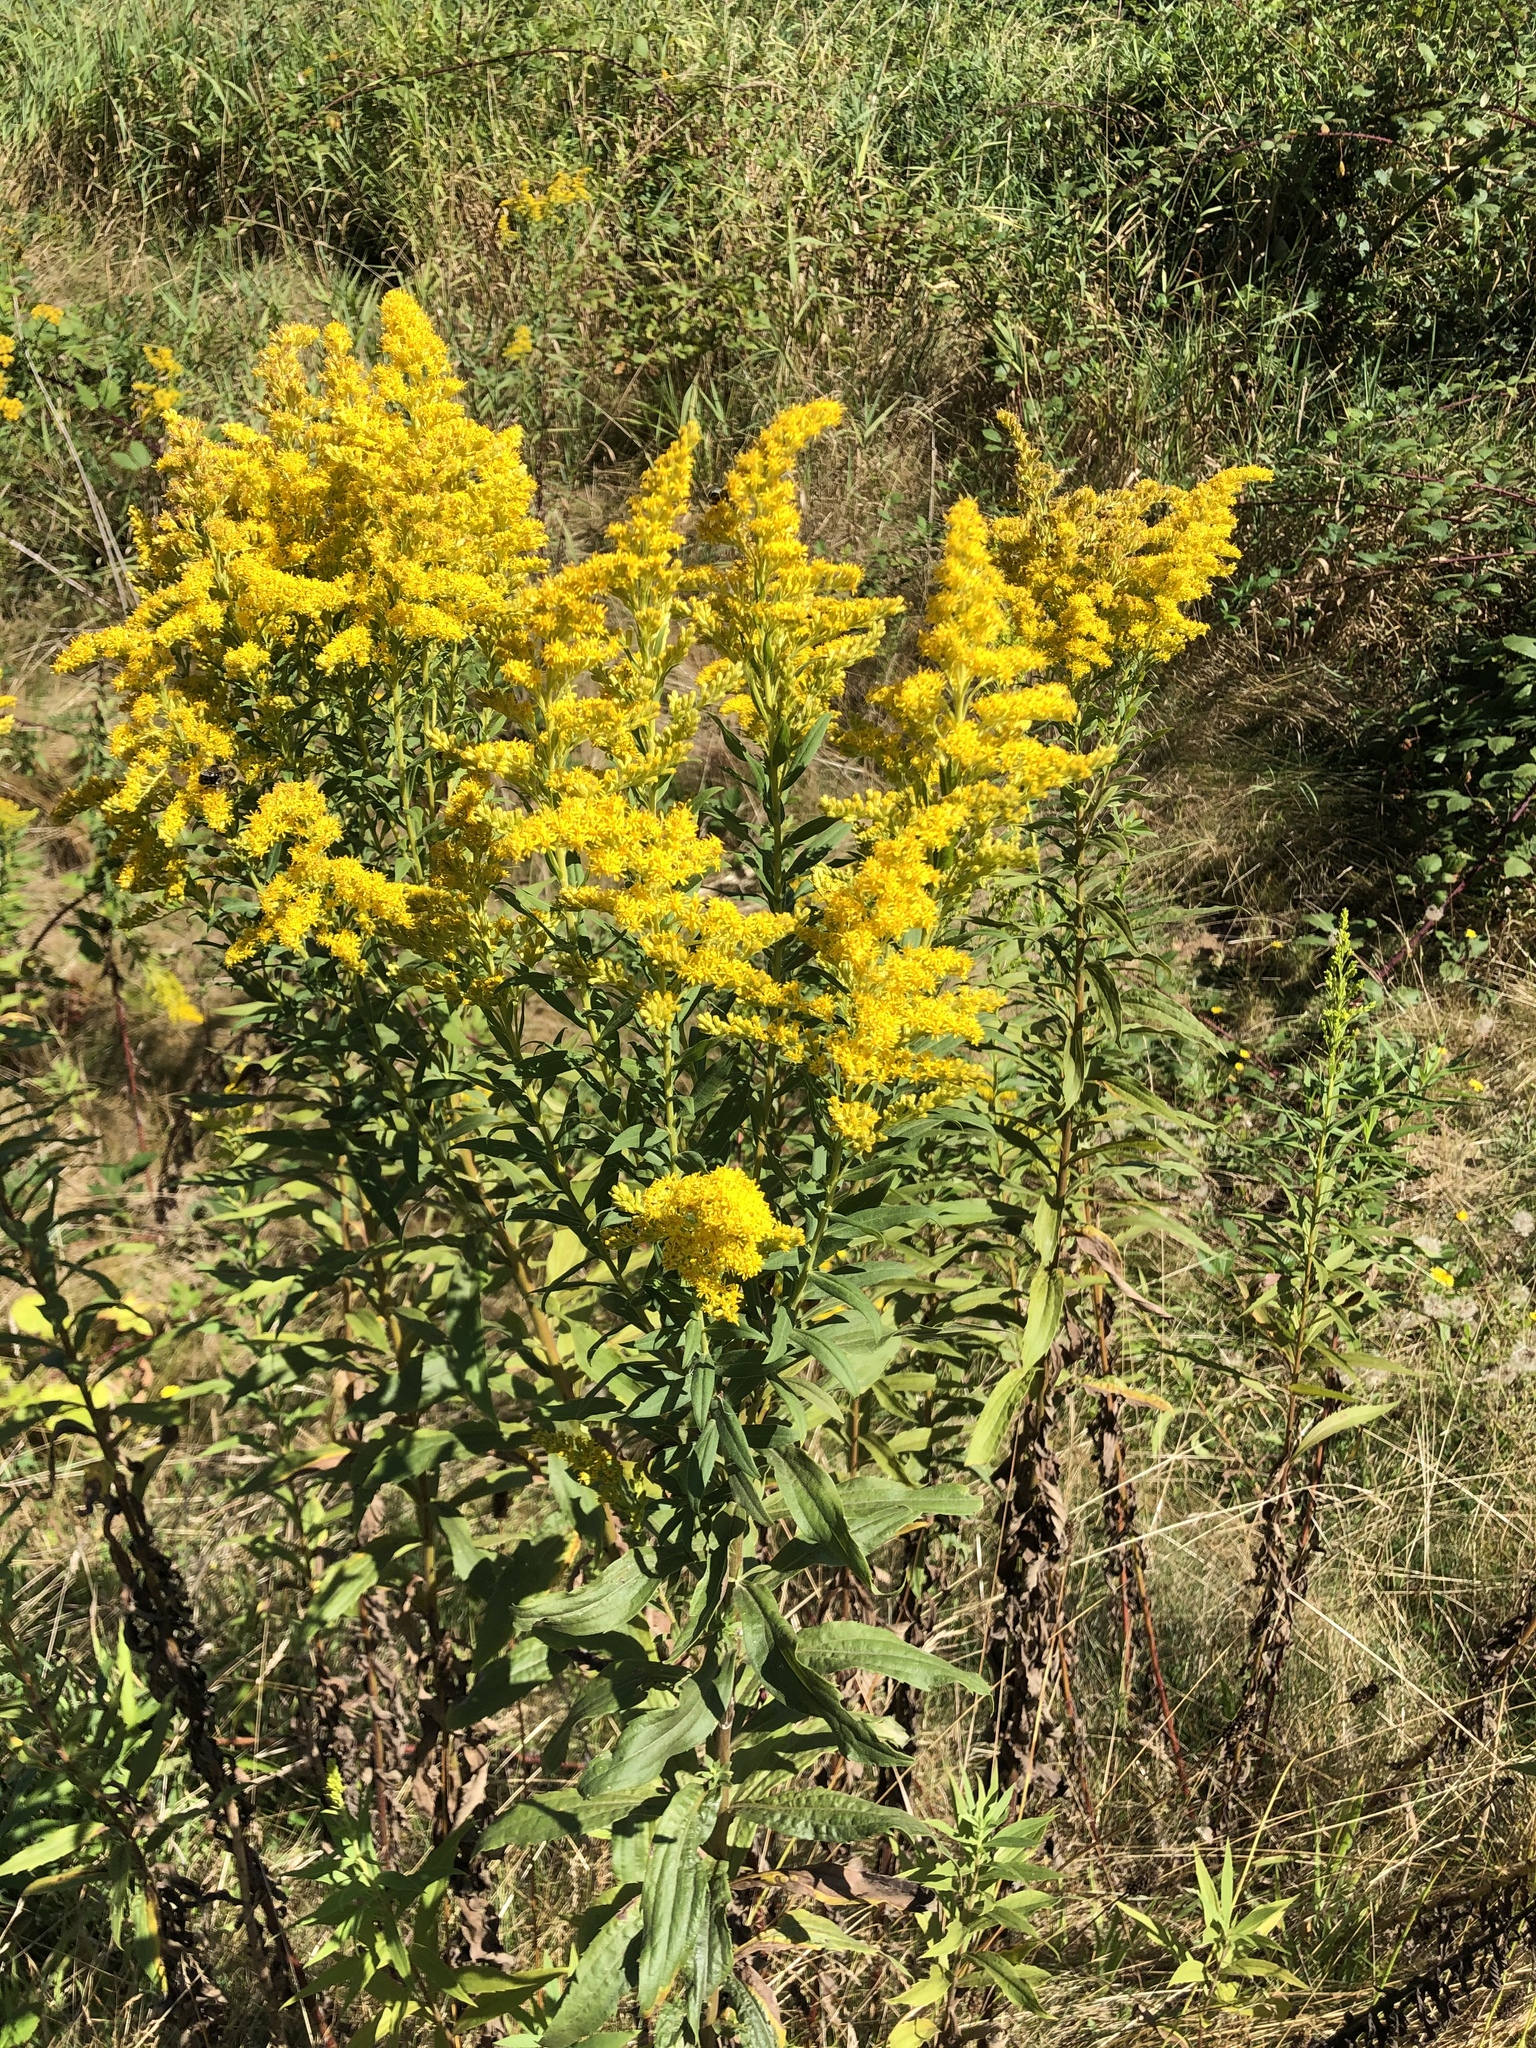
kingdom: Plantae
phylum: Tracheophyta
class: Magnoliopsida
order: Asterales
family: Asteraceae
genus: Solidago
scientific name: Solidago lepida
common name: Western canada goldenrod
